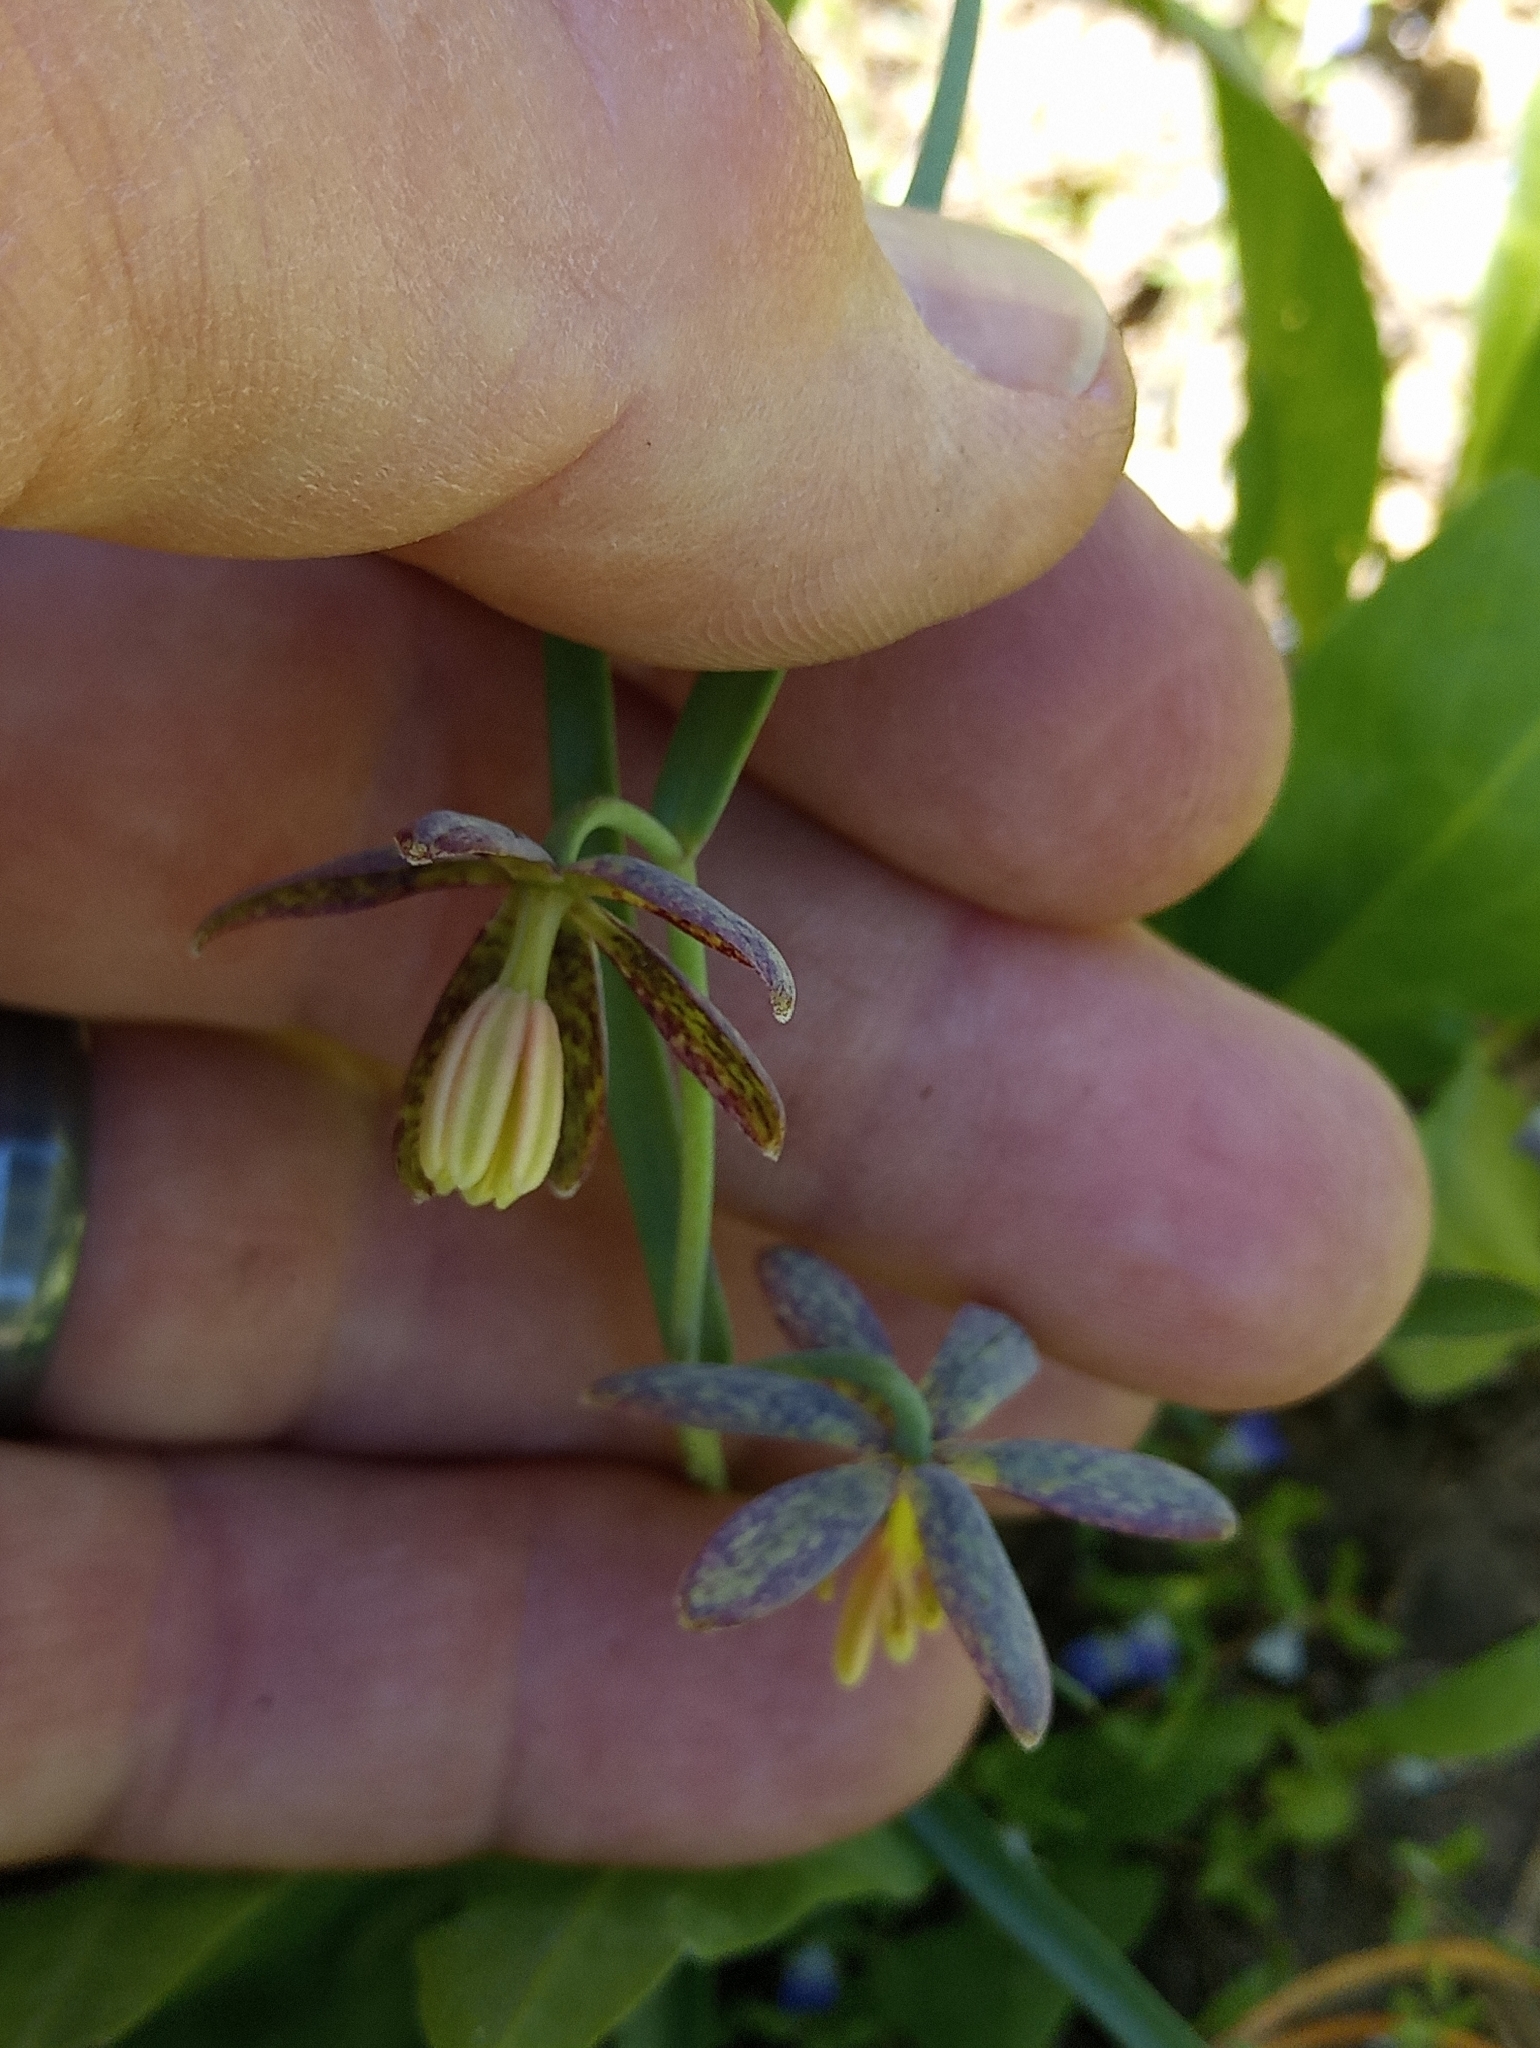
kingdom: Plantae
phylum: Tracheophyta
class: Liliopsida
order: Liliales
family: Liliaceae
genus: Fritillaria
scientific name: Fritillaria atropurpurea
